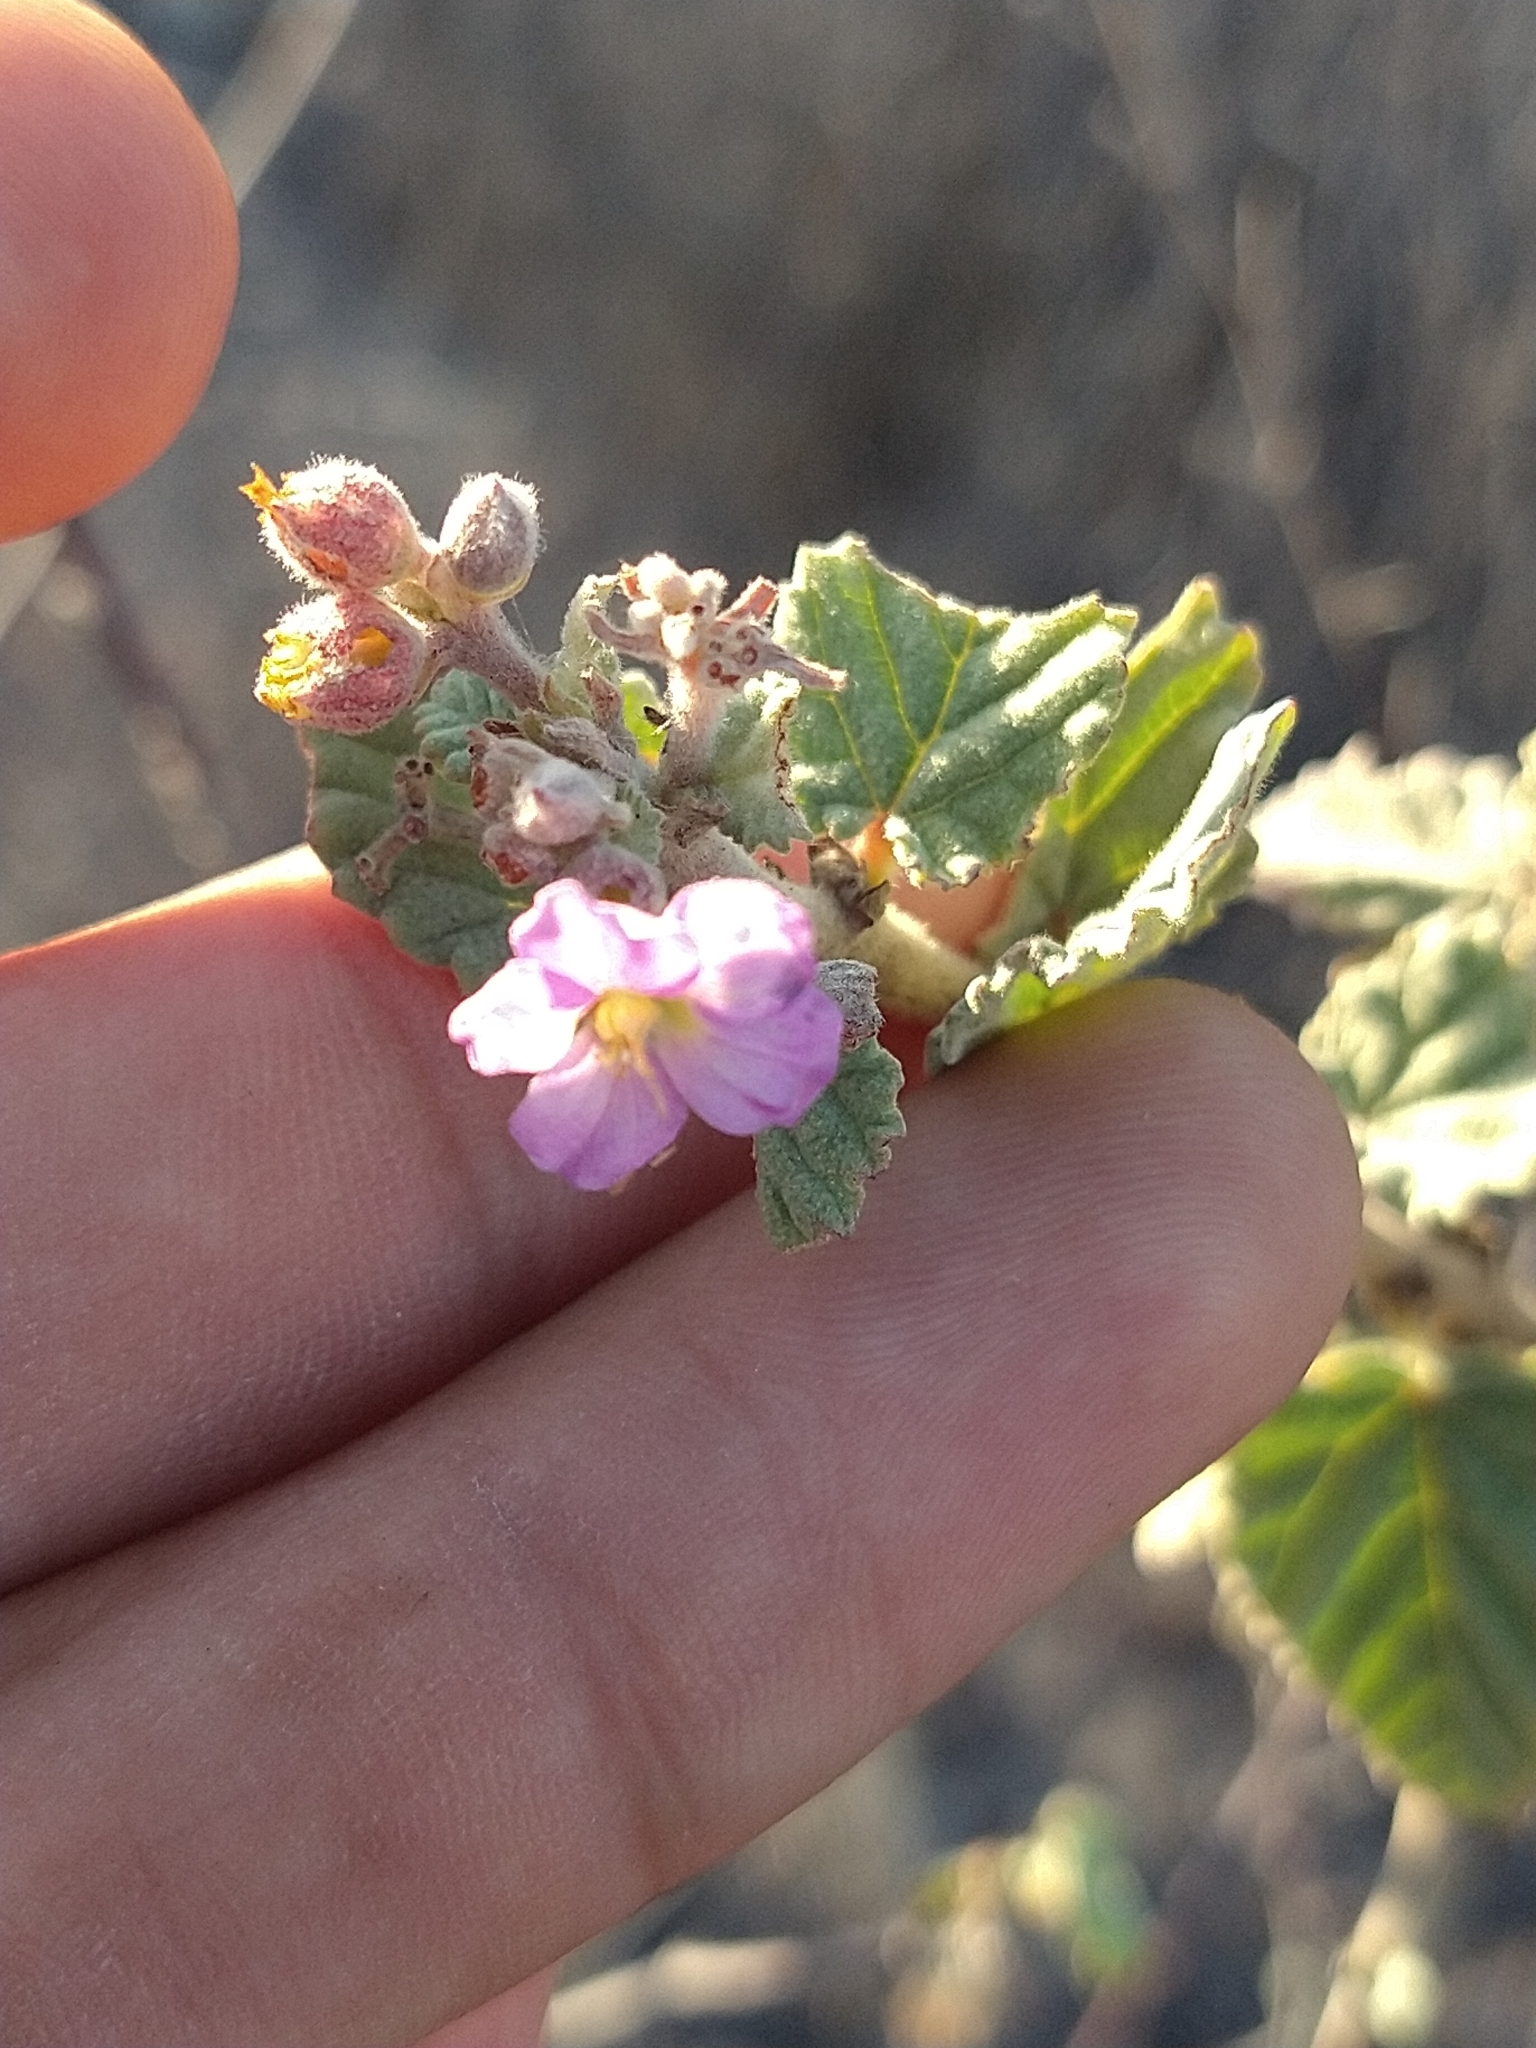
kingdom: Plantae
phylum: Tracheophyta
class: Magnoliopsida
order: Malvales
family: Malvaceae
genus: Melochia
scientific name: Melochia tomentosa
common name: Black torch
